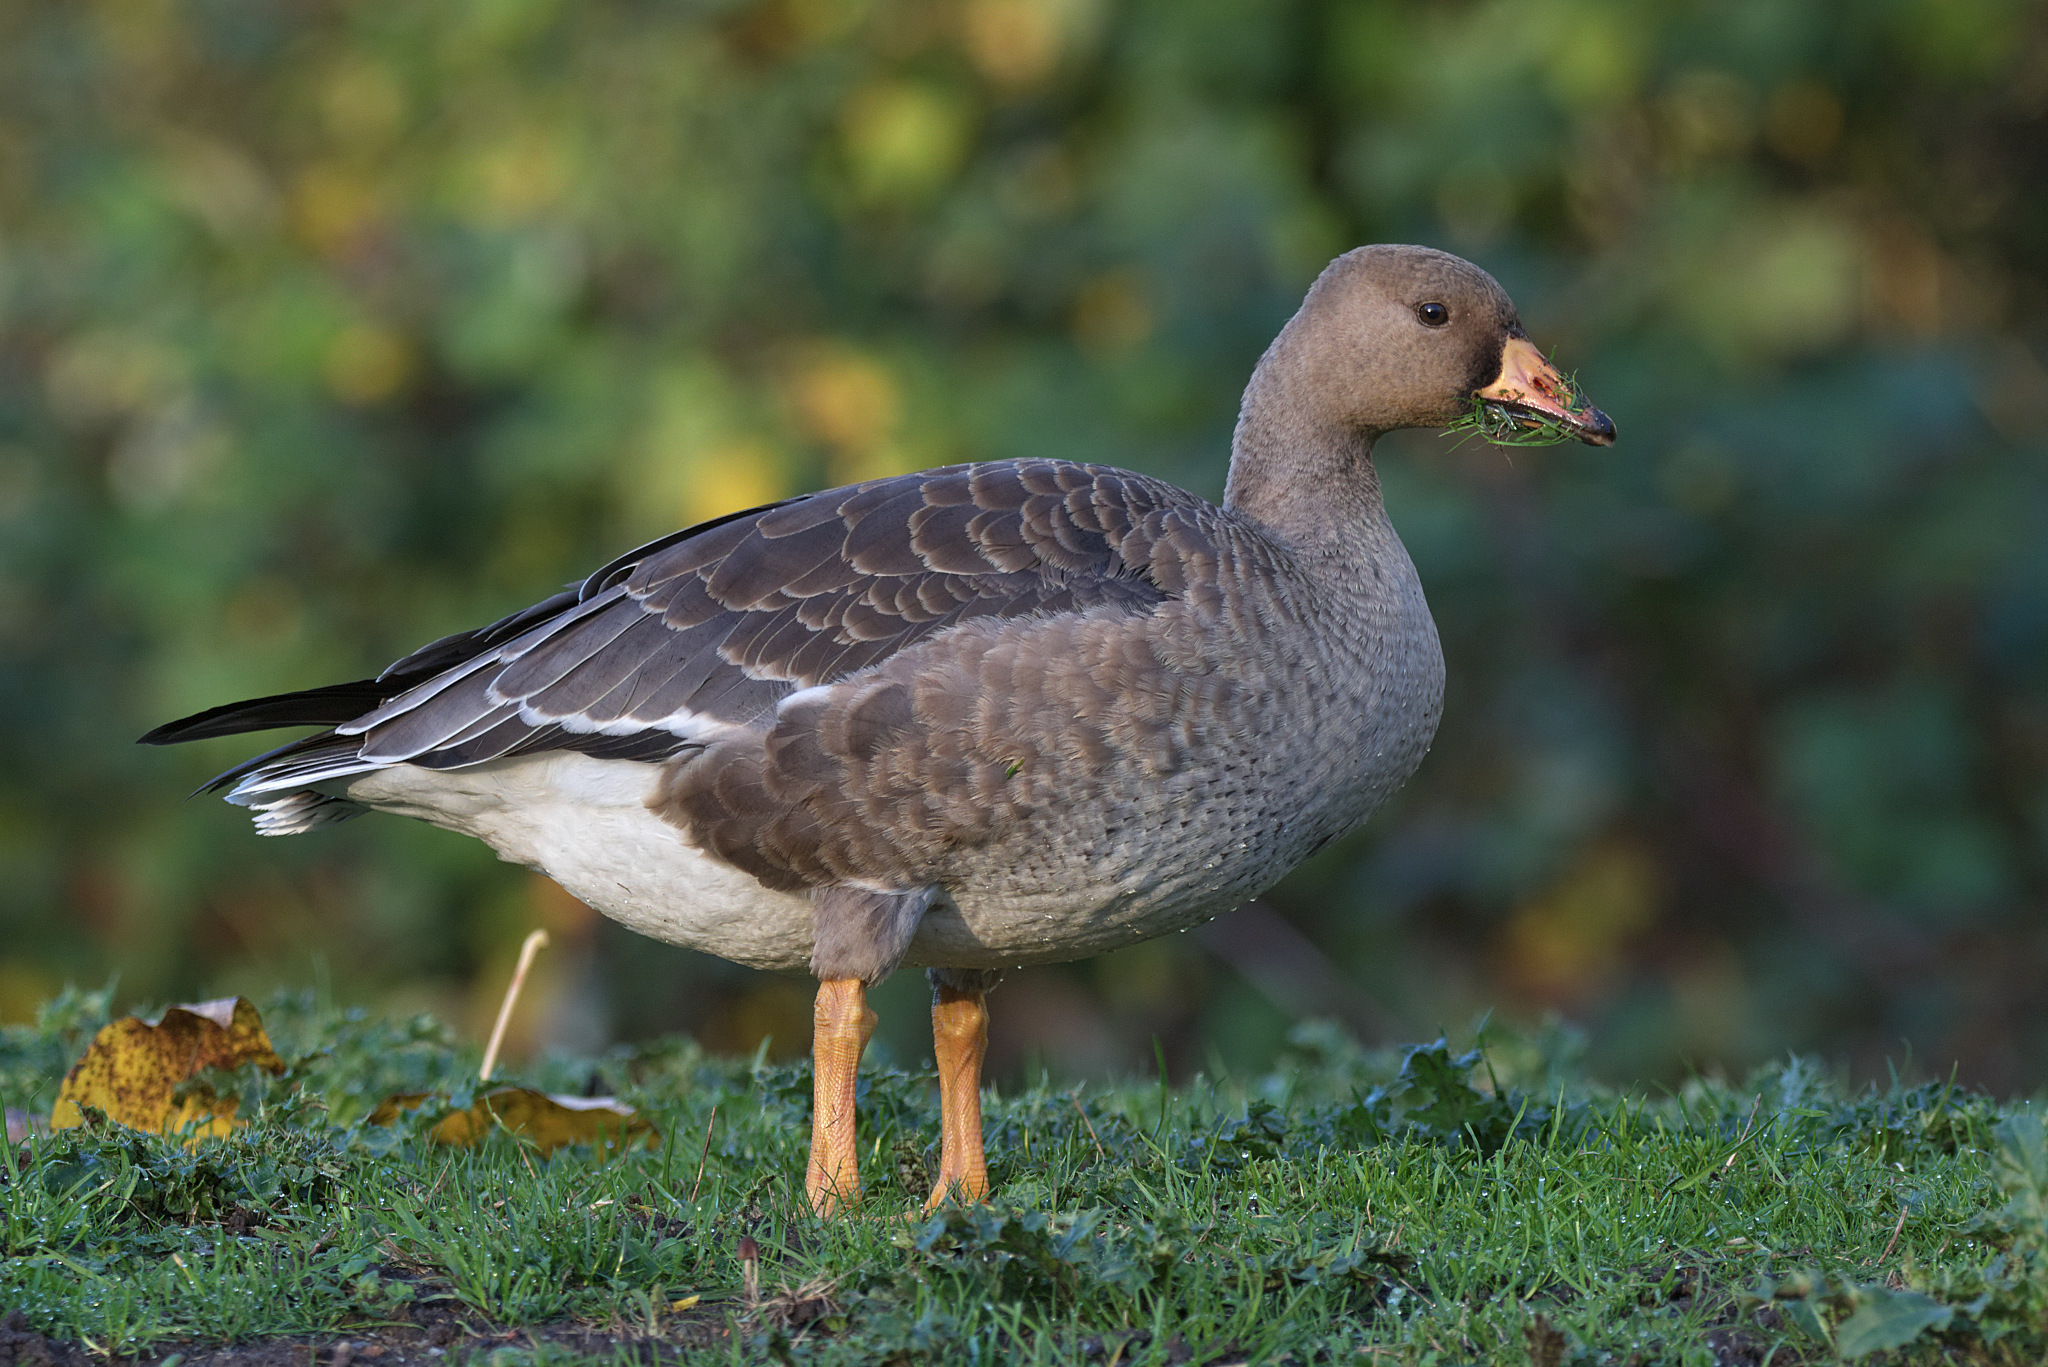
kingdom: Animalia
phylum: Chordata
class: Aves
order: Anseriformes
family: Anatidae
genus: Anser
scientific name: Anser albifrons
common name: Greater white-fronted goose
